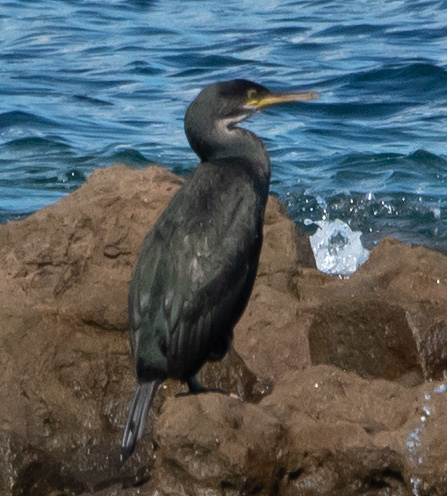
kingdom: Animalia
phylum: Chordata
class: Aves
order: Suliformes
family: Phalacrocoracidae
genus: Phalacrocorax
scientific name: Phalacrocorax aristotelis
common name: European shag
